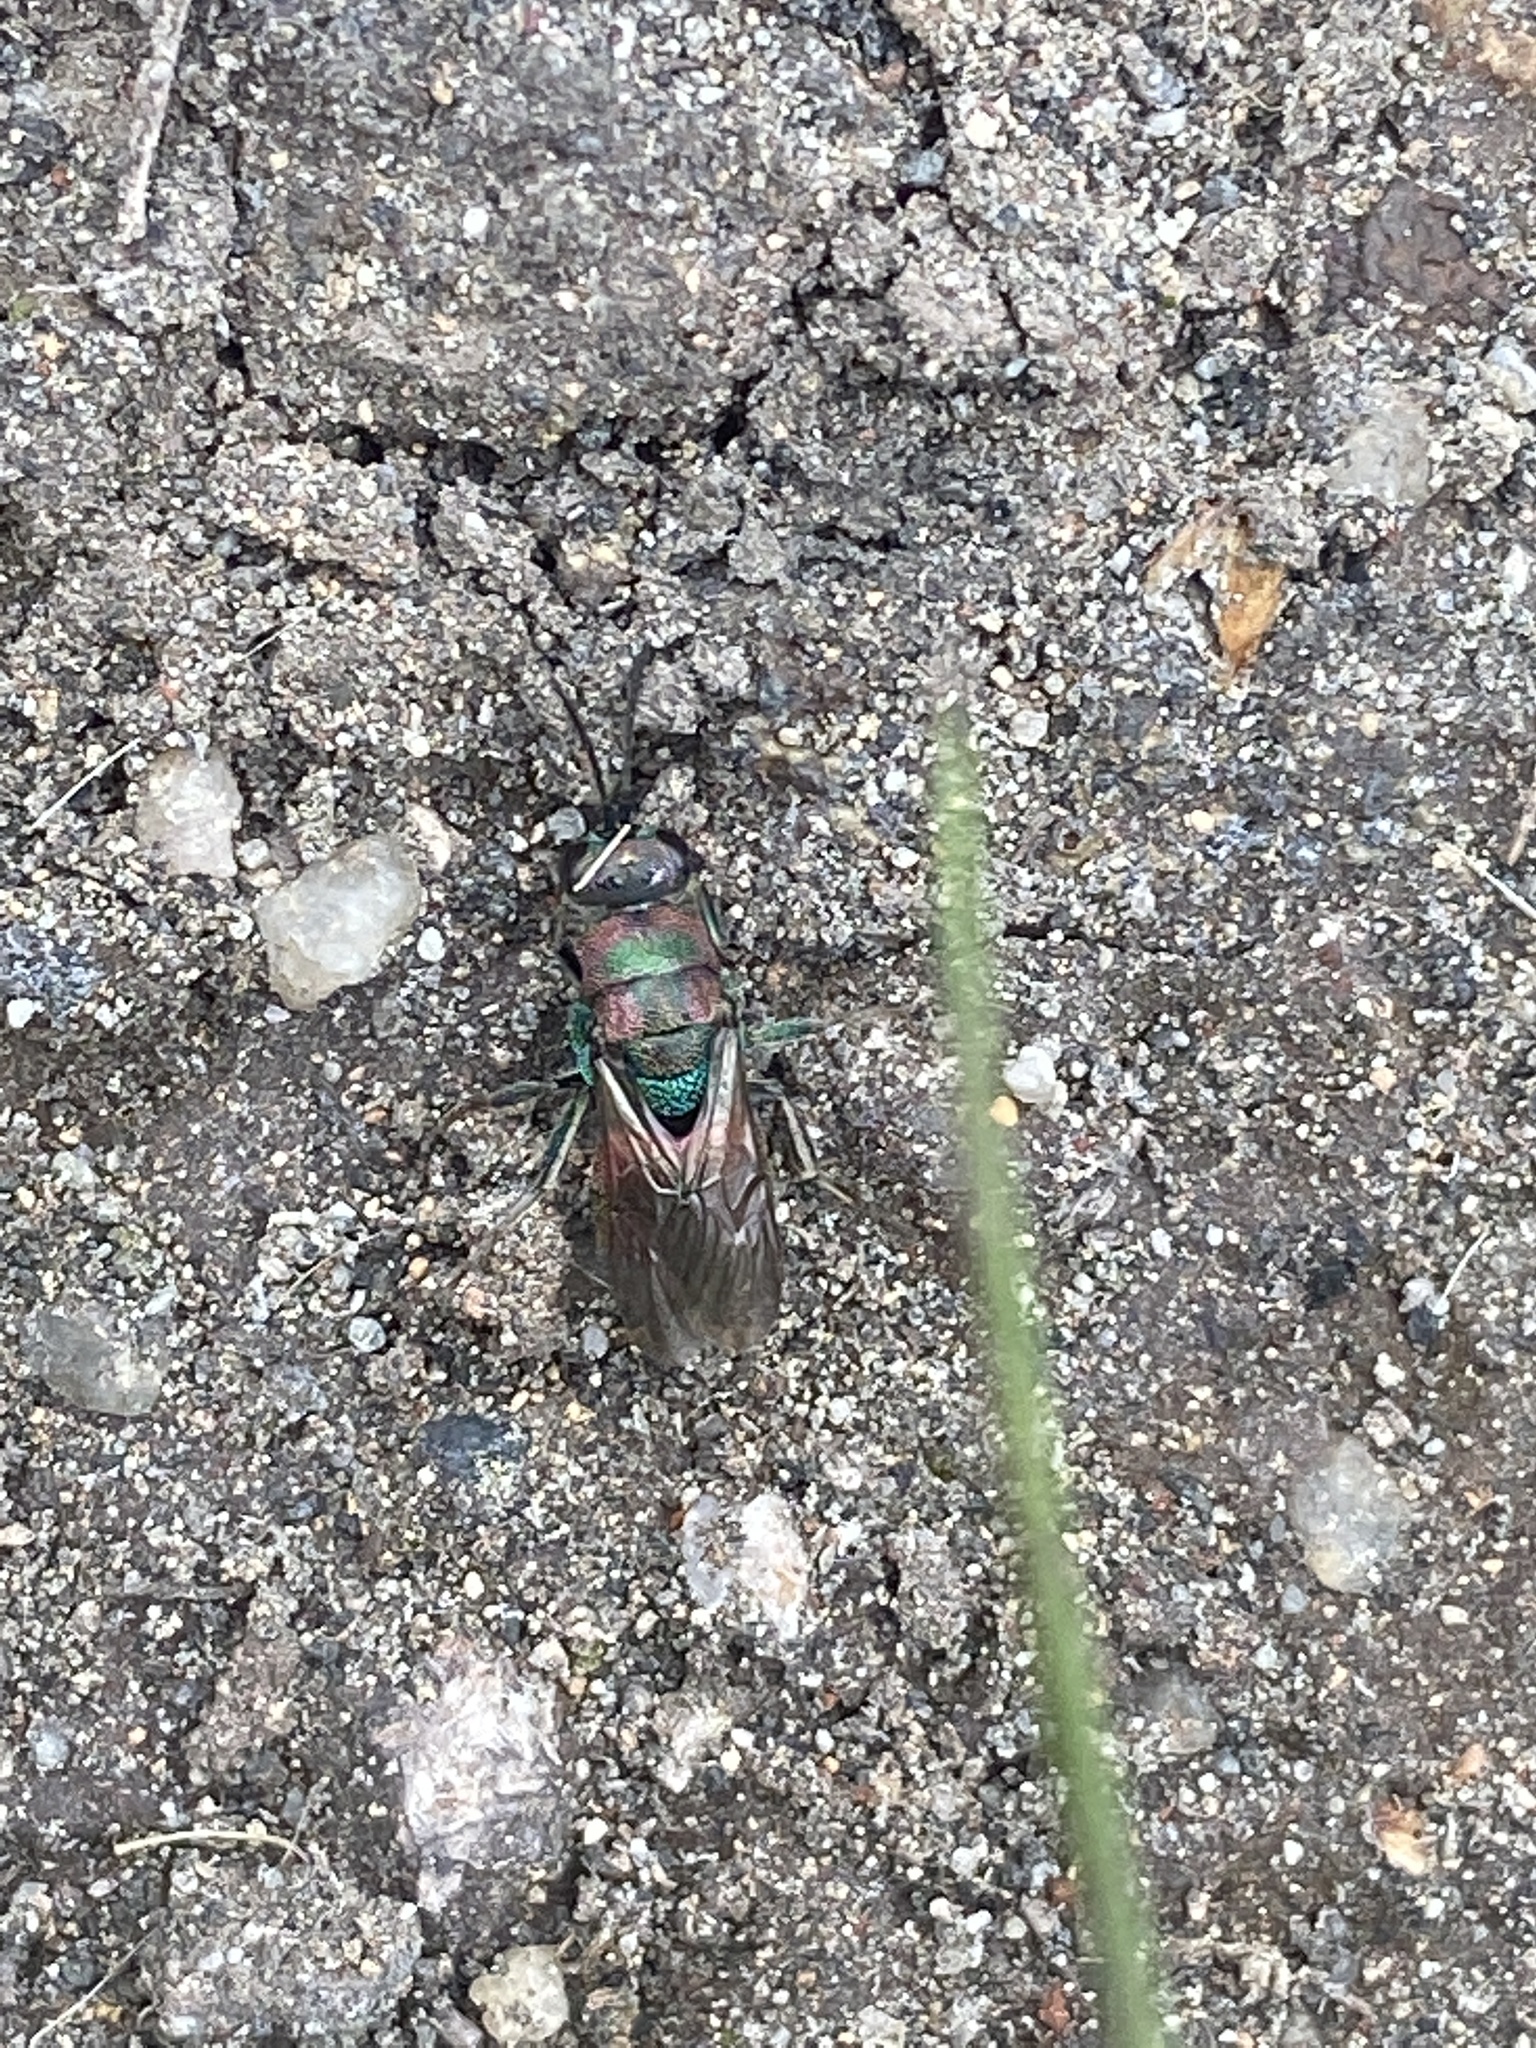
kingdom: Animalia
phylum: Arthropoda
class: Insecta
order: Hymenoptera
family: Chrysididae
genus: Hedychrum
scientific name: Hedychrum rutilans
